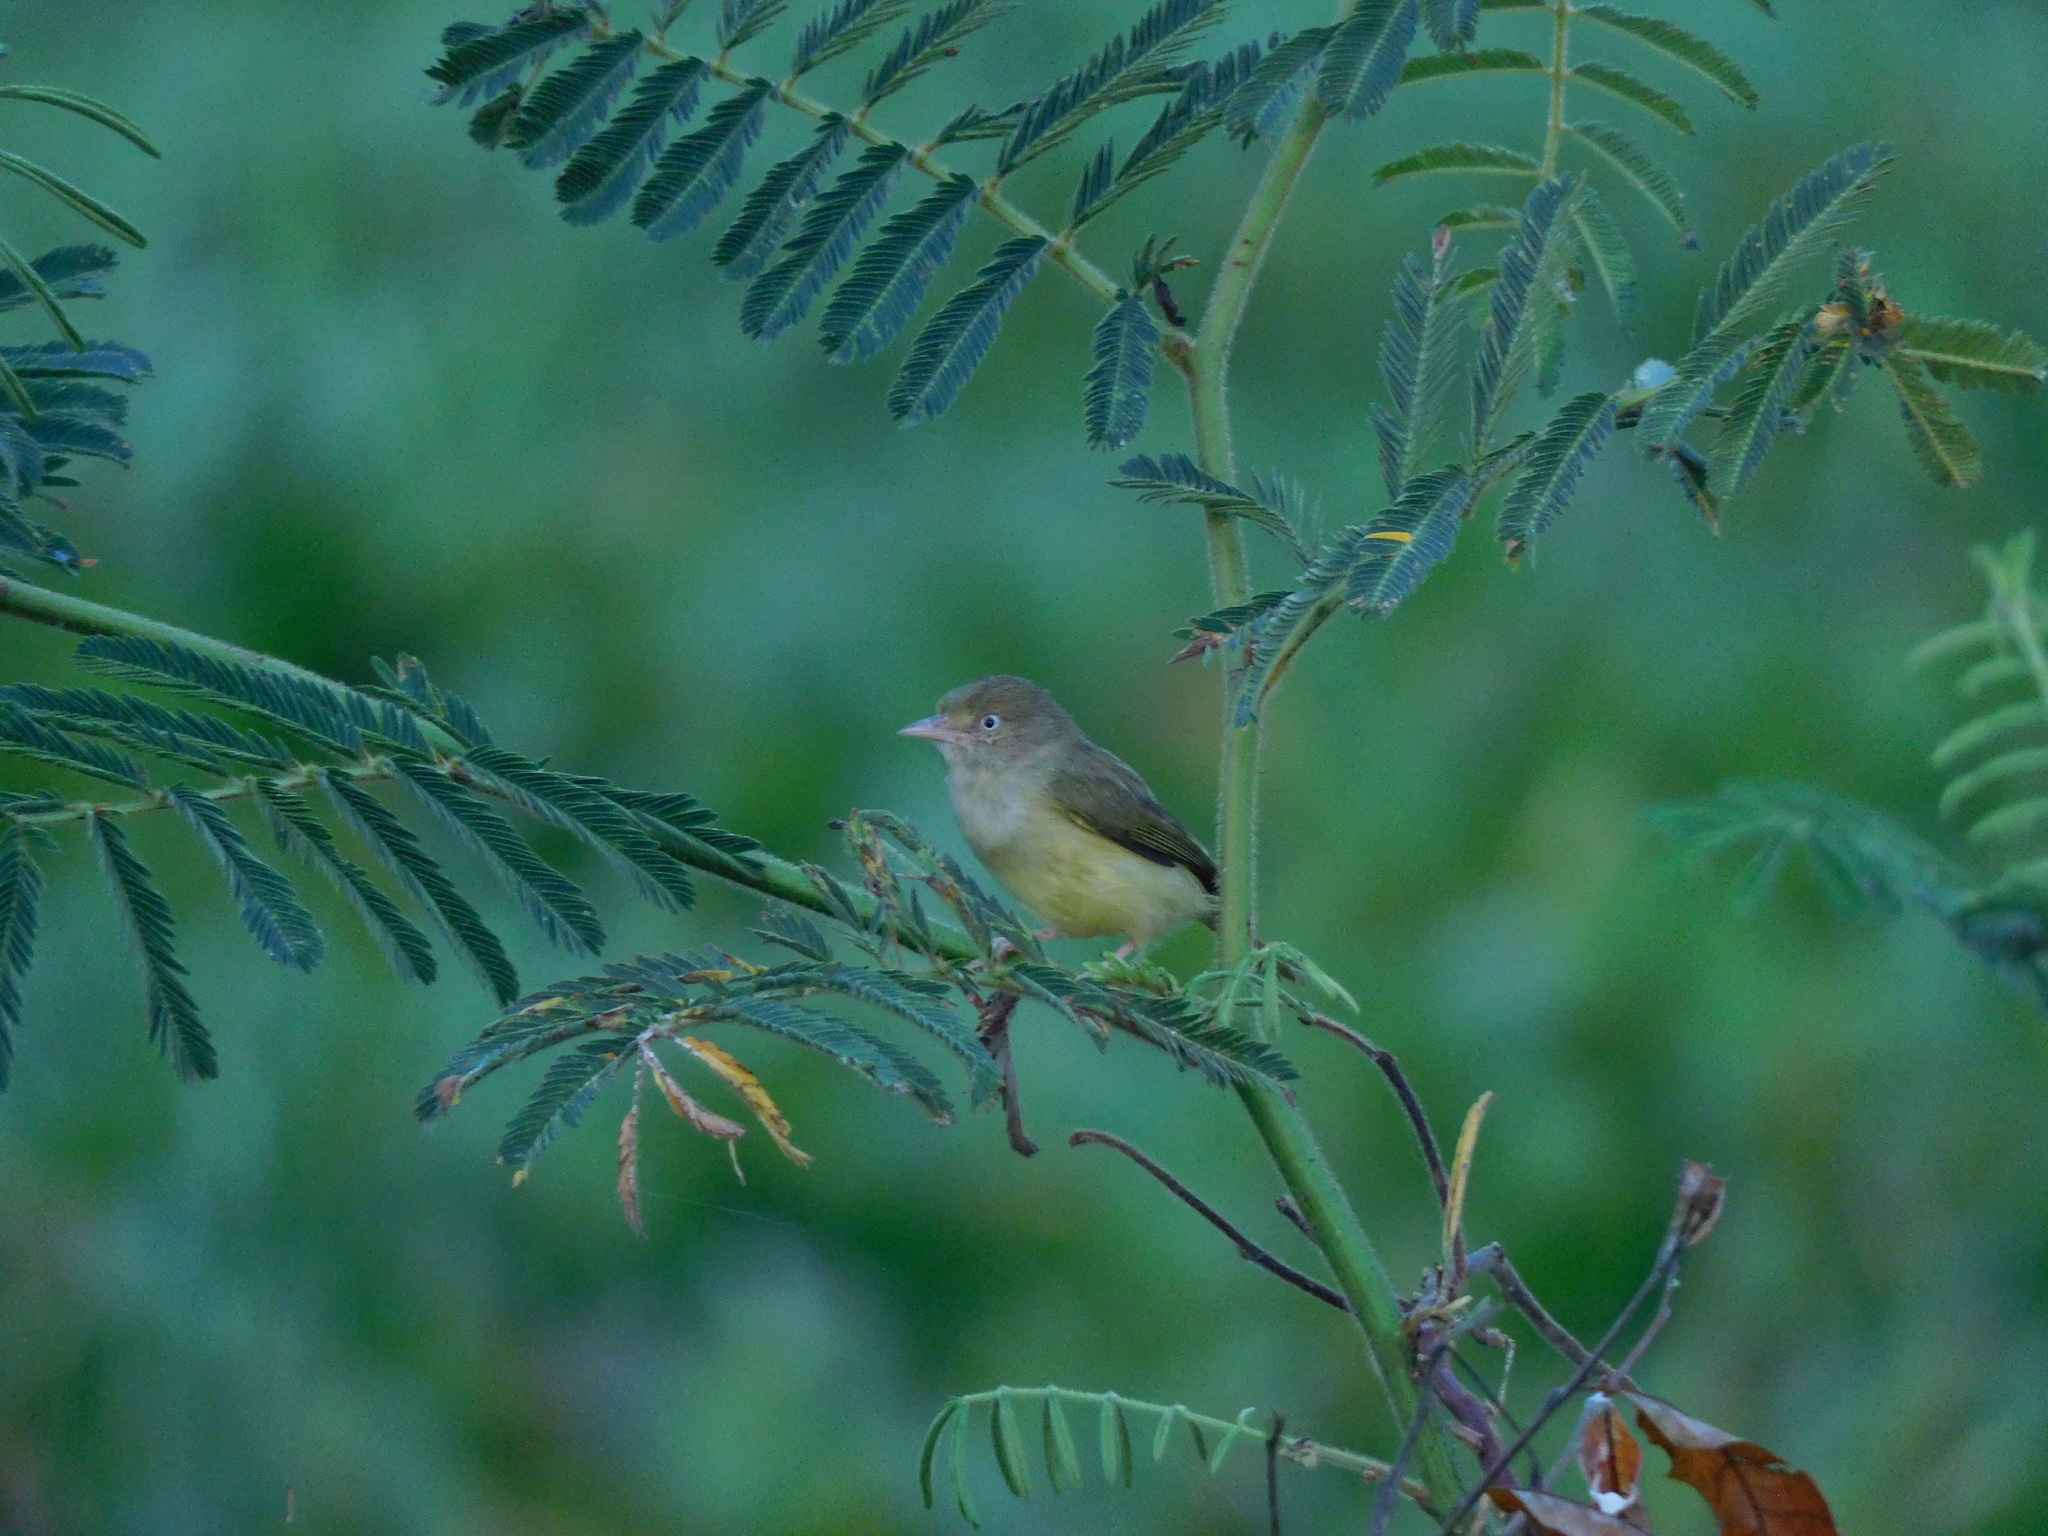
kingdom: Animalia
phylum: Chordata
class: Aves
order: Passeriformes
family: Vireonidae
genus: Hylophilus
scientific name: Hylophilus flavipes
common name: Scrub greenlet
